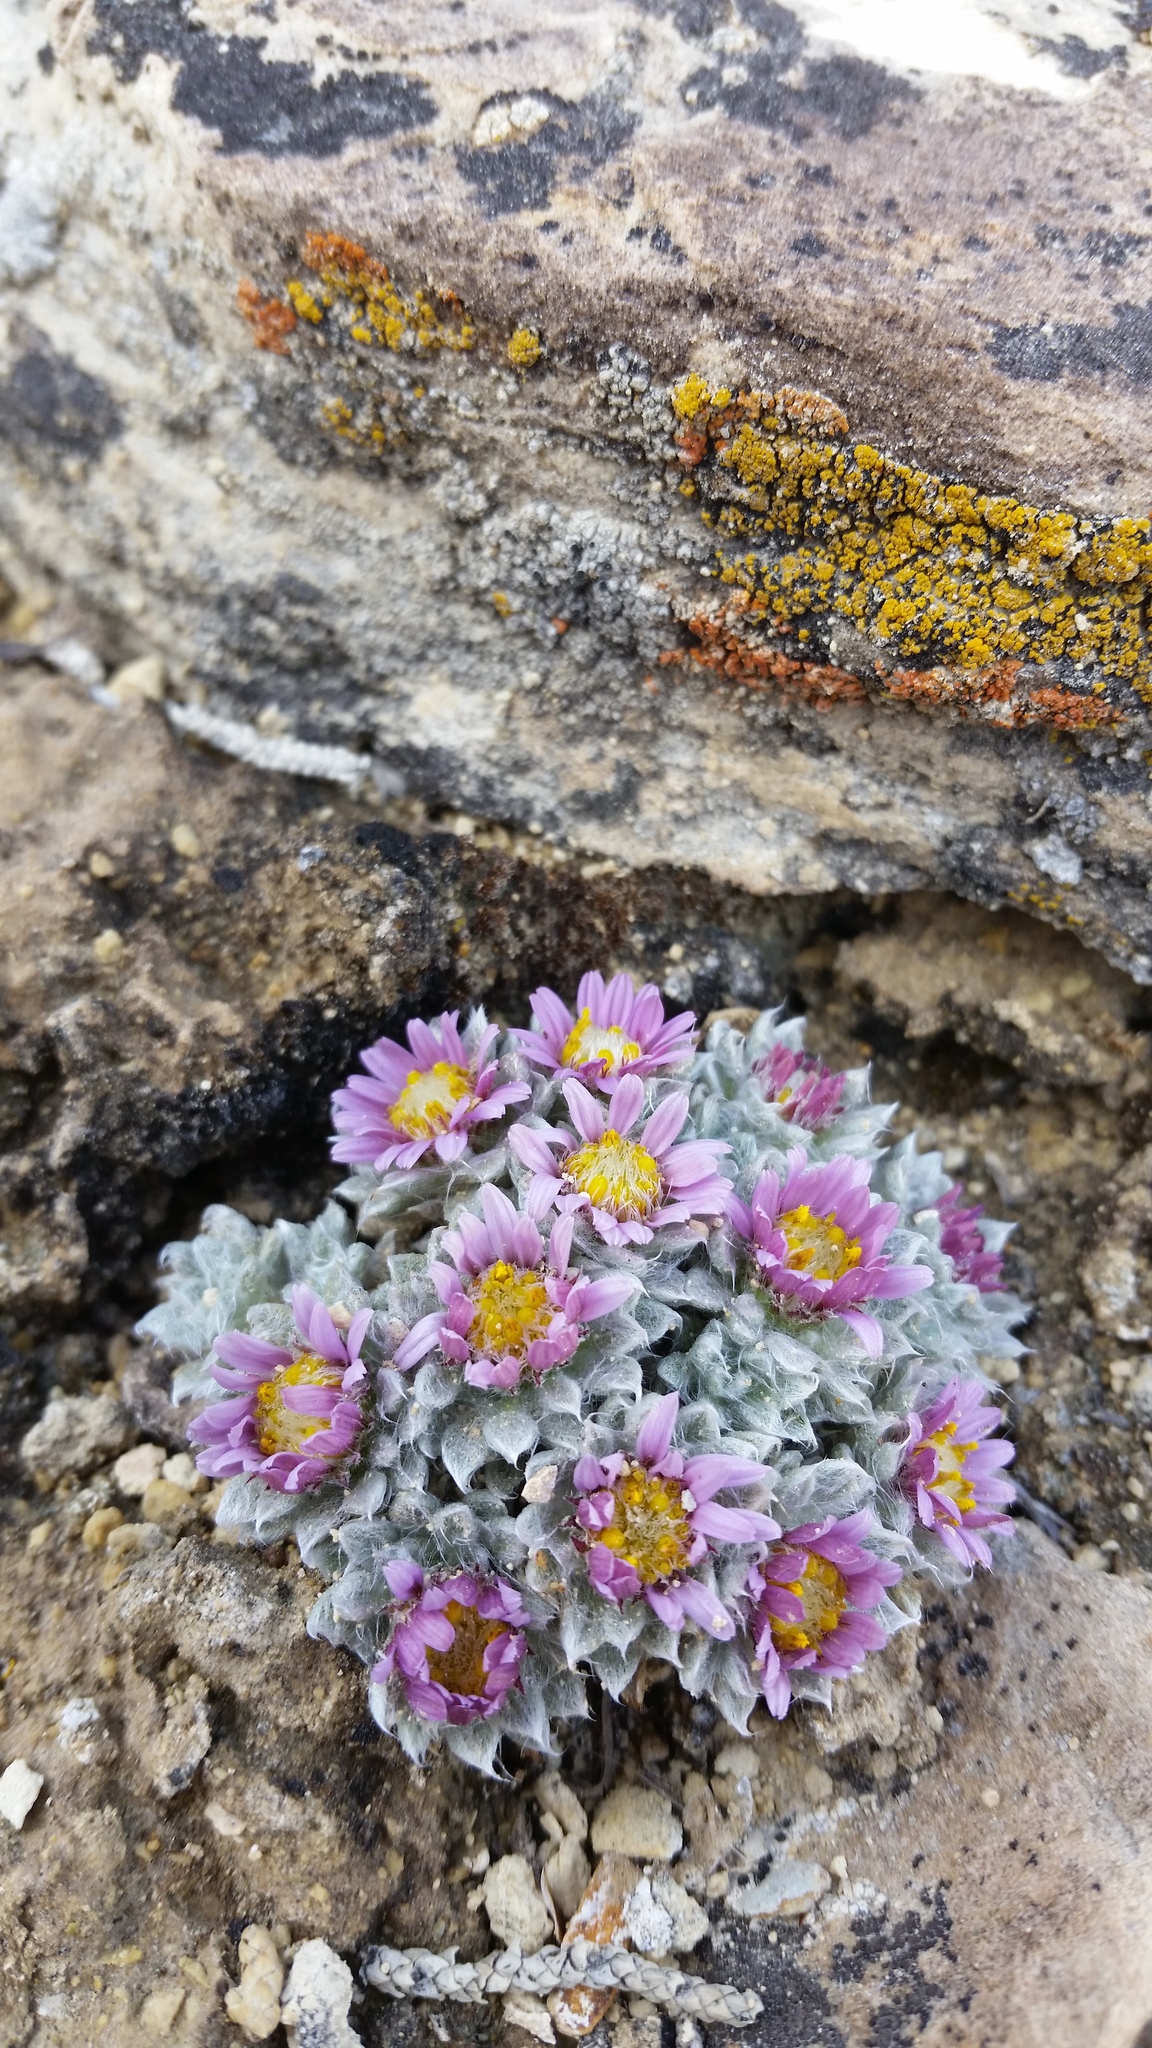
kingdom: Plantae
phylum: Tracheophyta
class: Magnoliopsida
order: Asterales
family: Asteraceae
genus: Townsendia
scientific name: Townsendia spathulata
